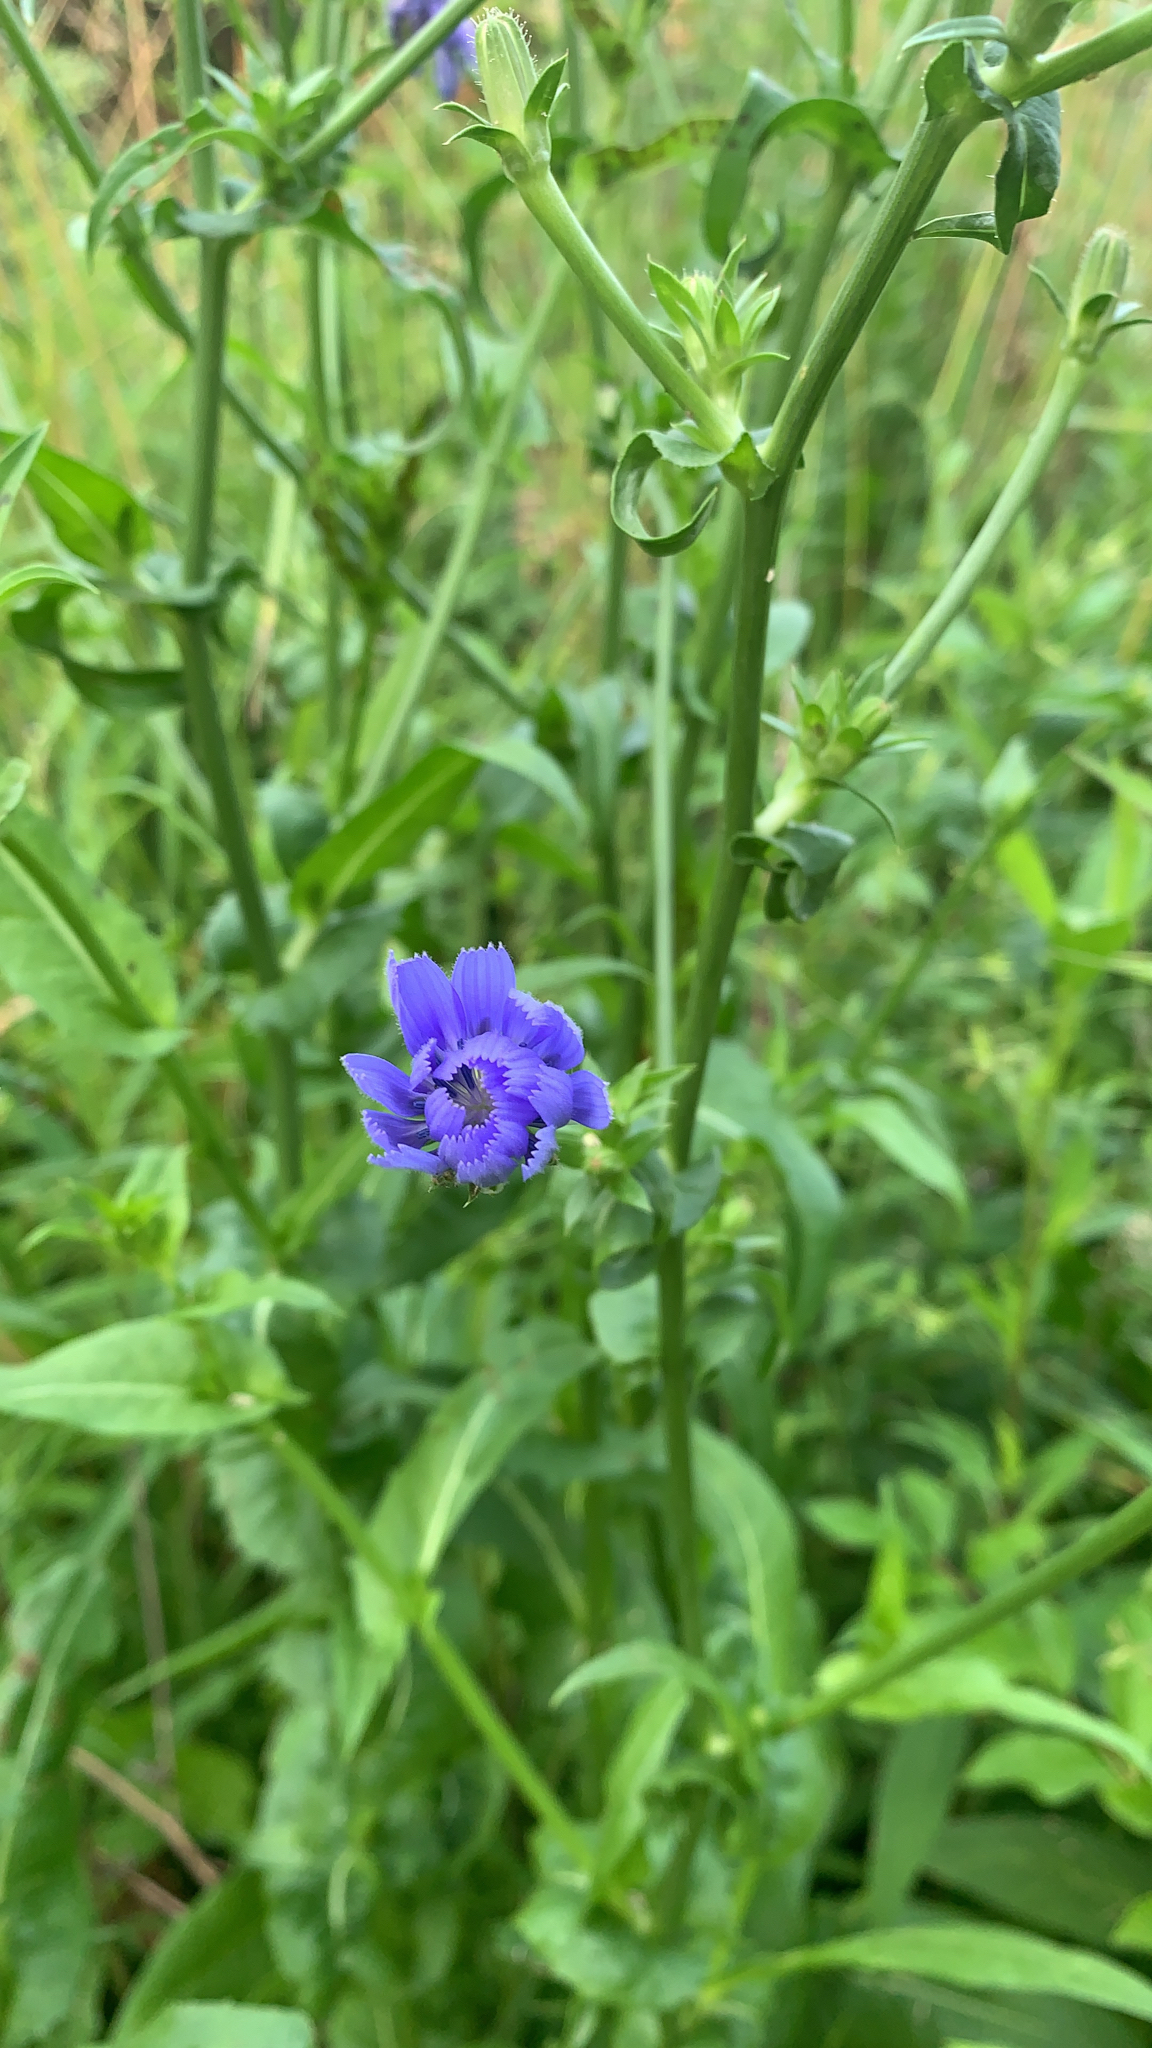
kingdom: Plantae
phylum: Tracheophyta
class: Magnoliopsida
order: Asterales
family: Asteraceae
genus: Cichorium
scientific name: Cichorium intybus
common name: Chicory
